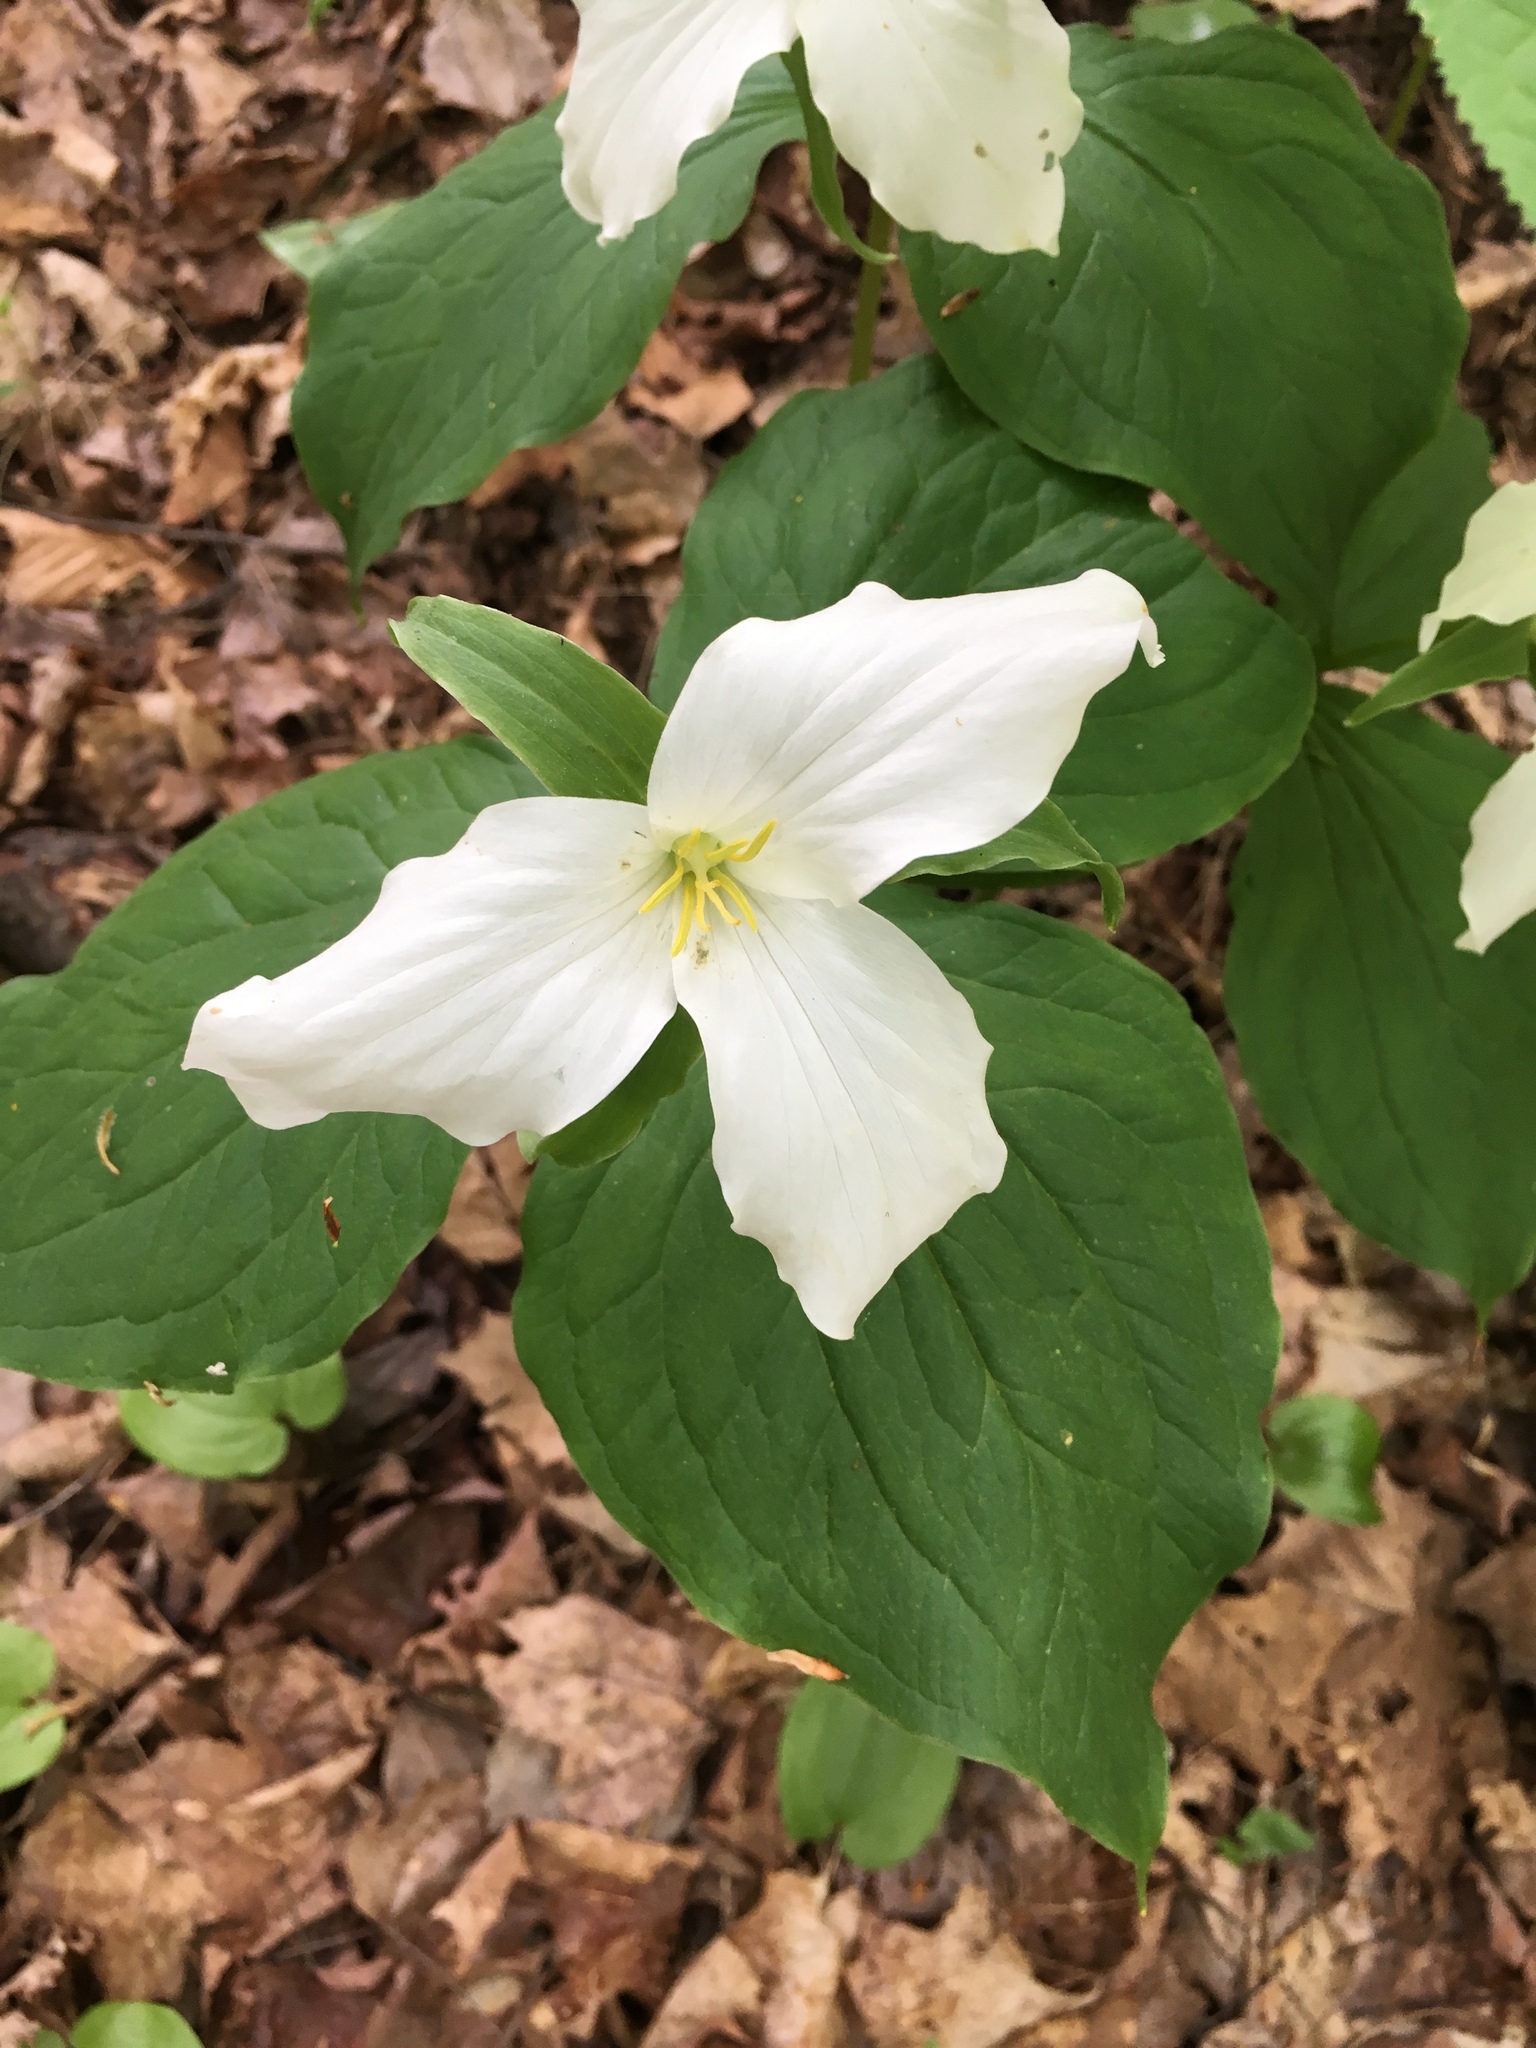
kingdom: Plantae
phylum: Tracheophyta
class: Liliopsida
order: Liliales
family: Melanthiaceae
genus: Trillium
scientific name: Trillium grandiflorum
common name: Great white trillium
